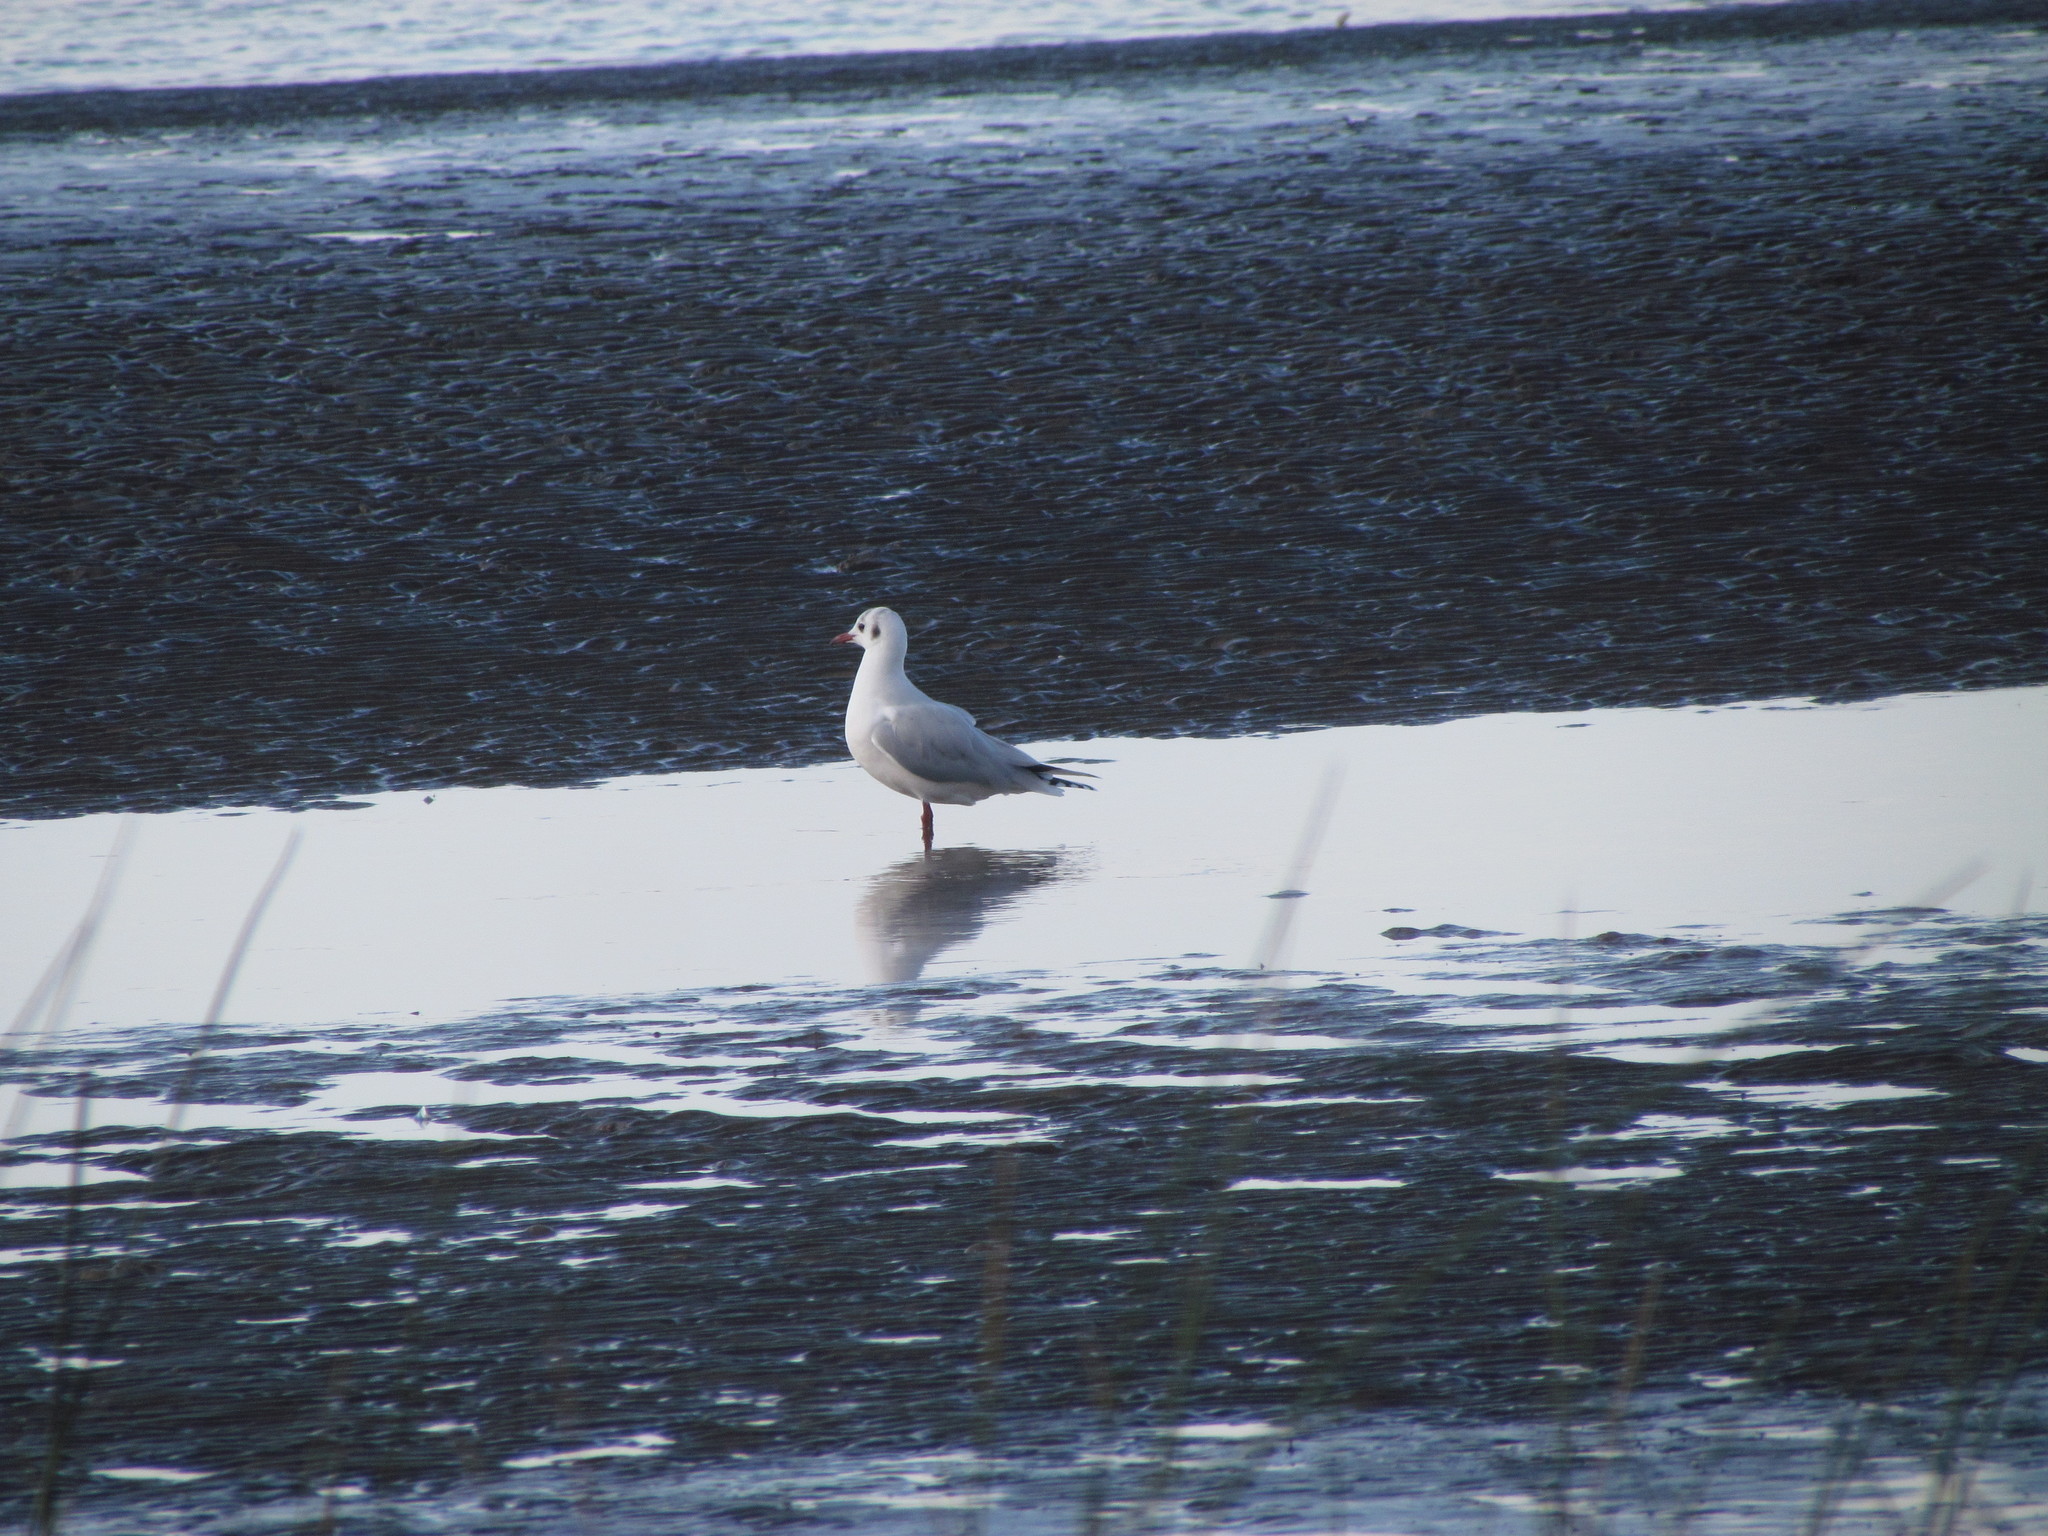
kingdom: Animalia
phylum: Chordata
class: Aves
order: Charadriiformes
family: Laridae
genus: Chroicocephalus
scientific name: Chroicocephalus maculipennis
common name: Brown-hooded gull
